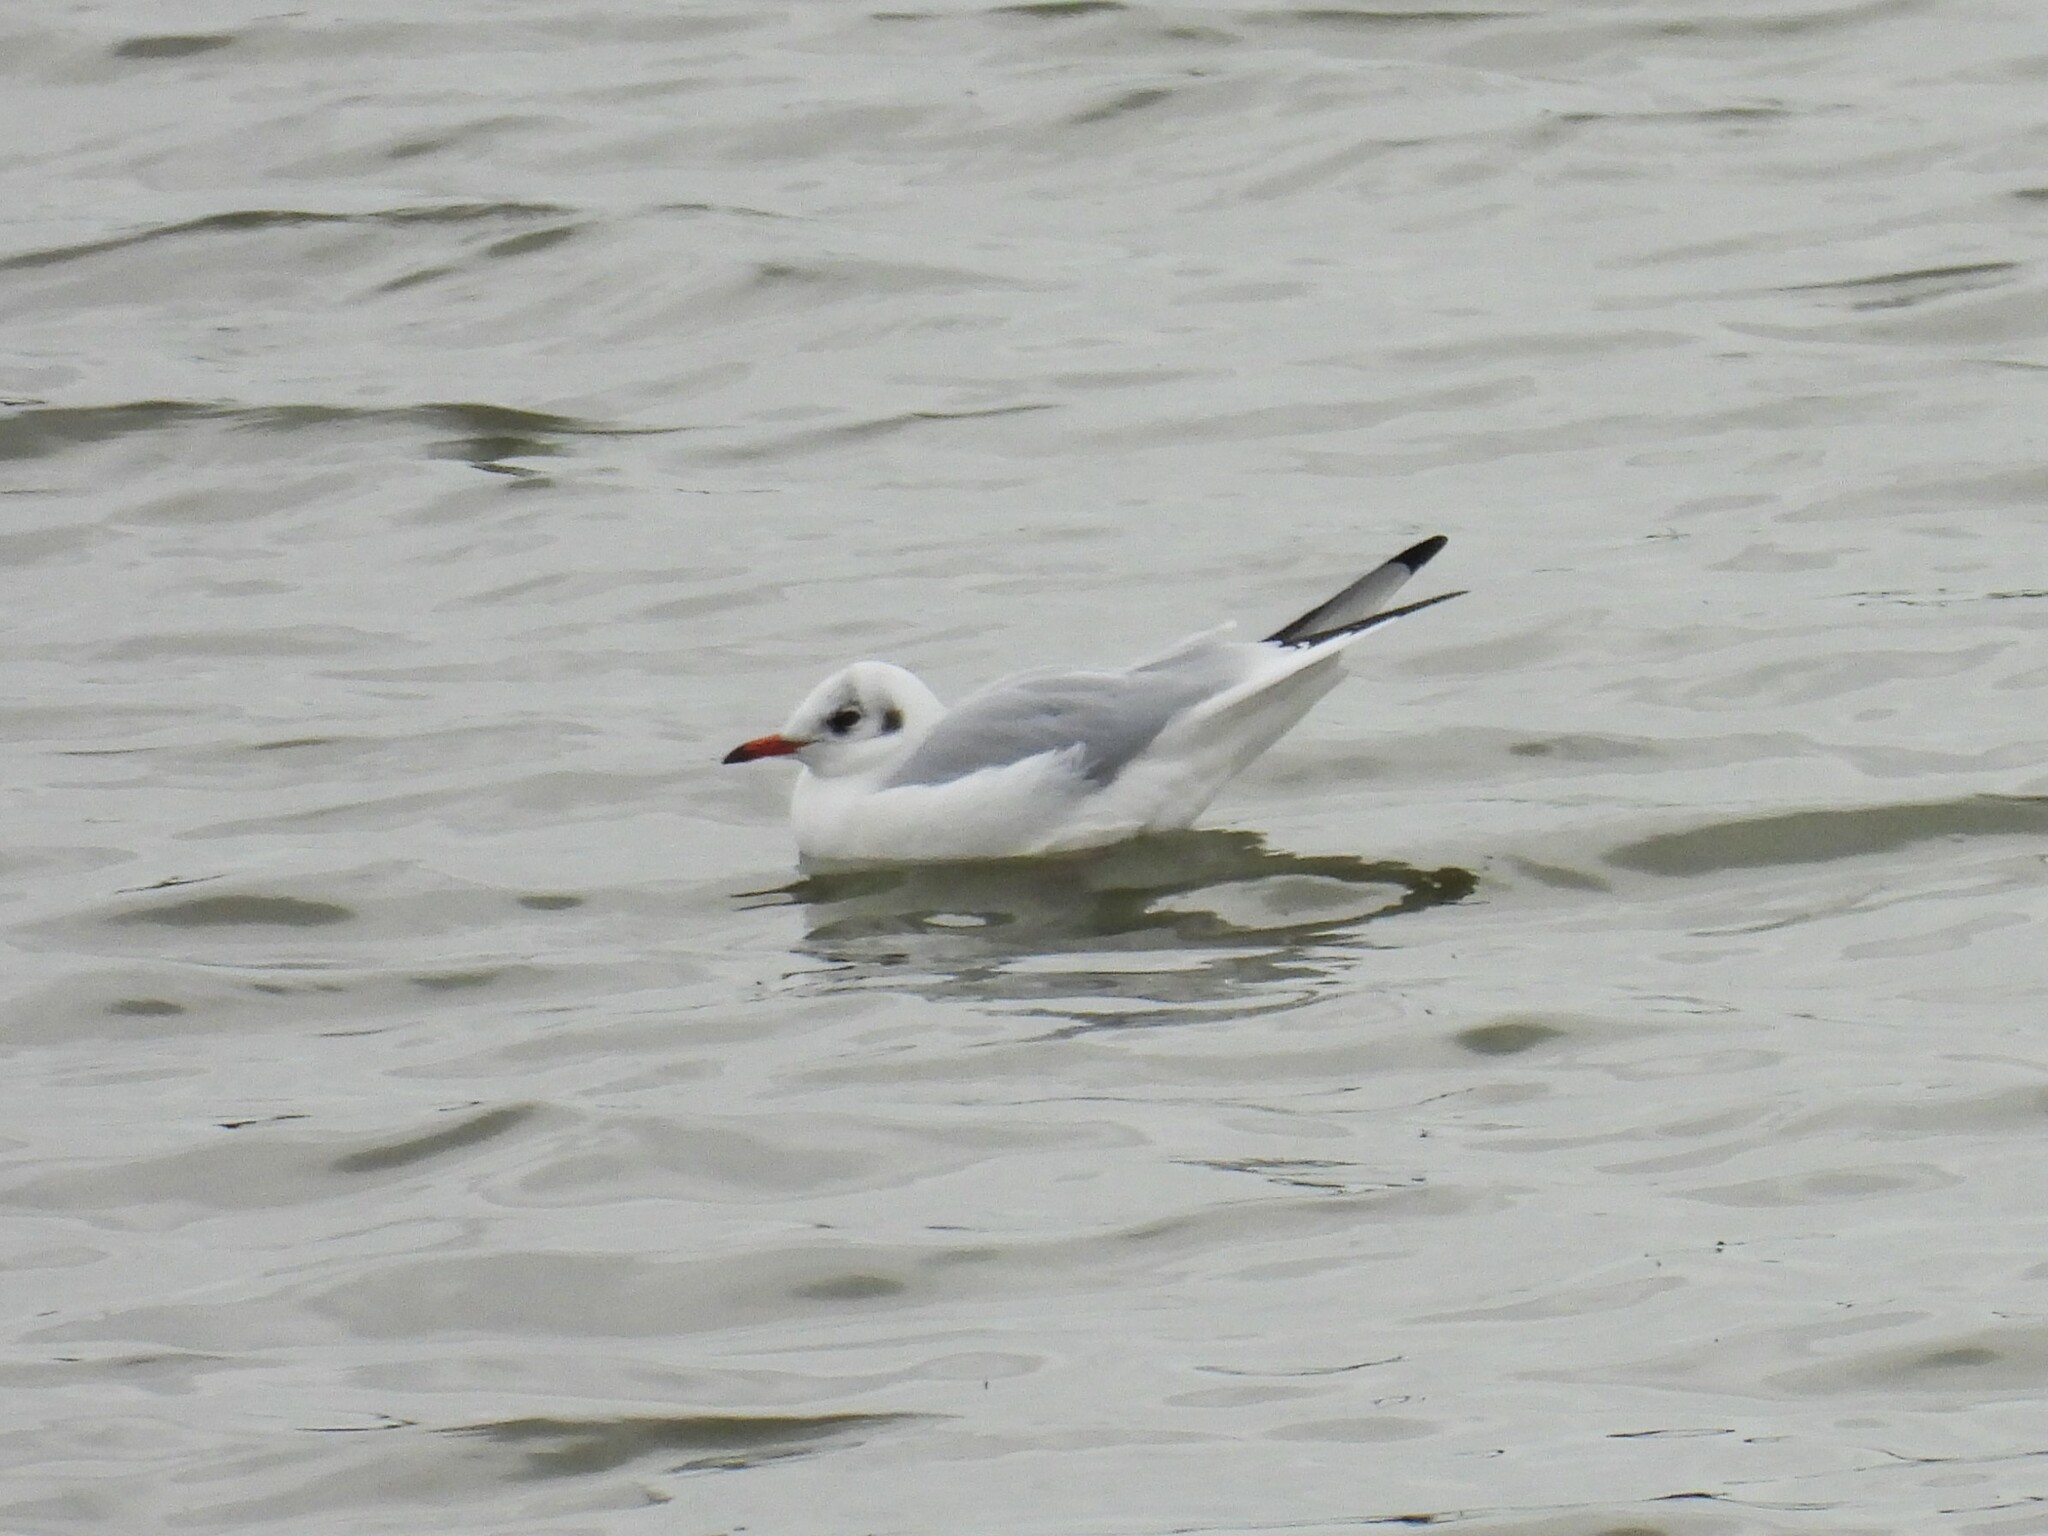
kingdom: Animalia
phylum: Chordata
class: Aves
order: Charadriiformes
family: Laridae
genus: Chroicocephalus
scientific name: Chroicocephalus ridibundus
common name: Black-headed gull
